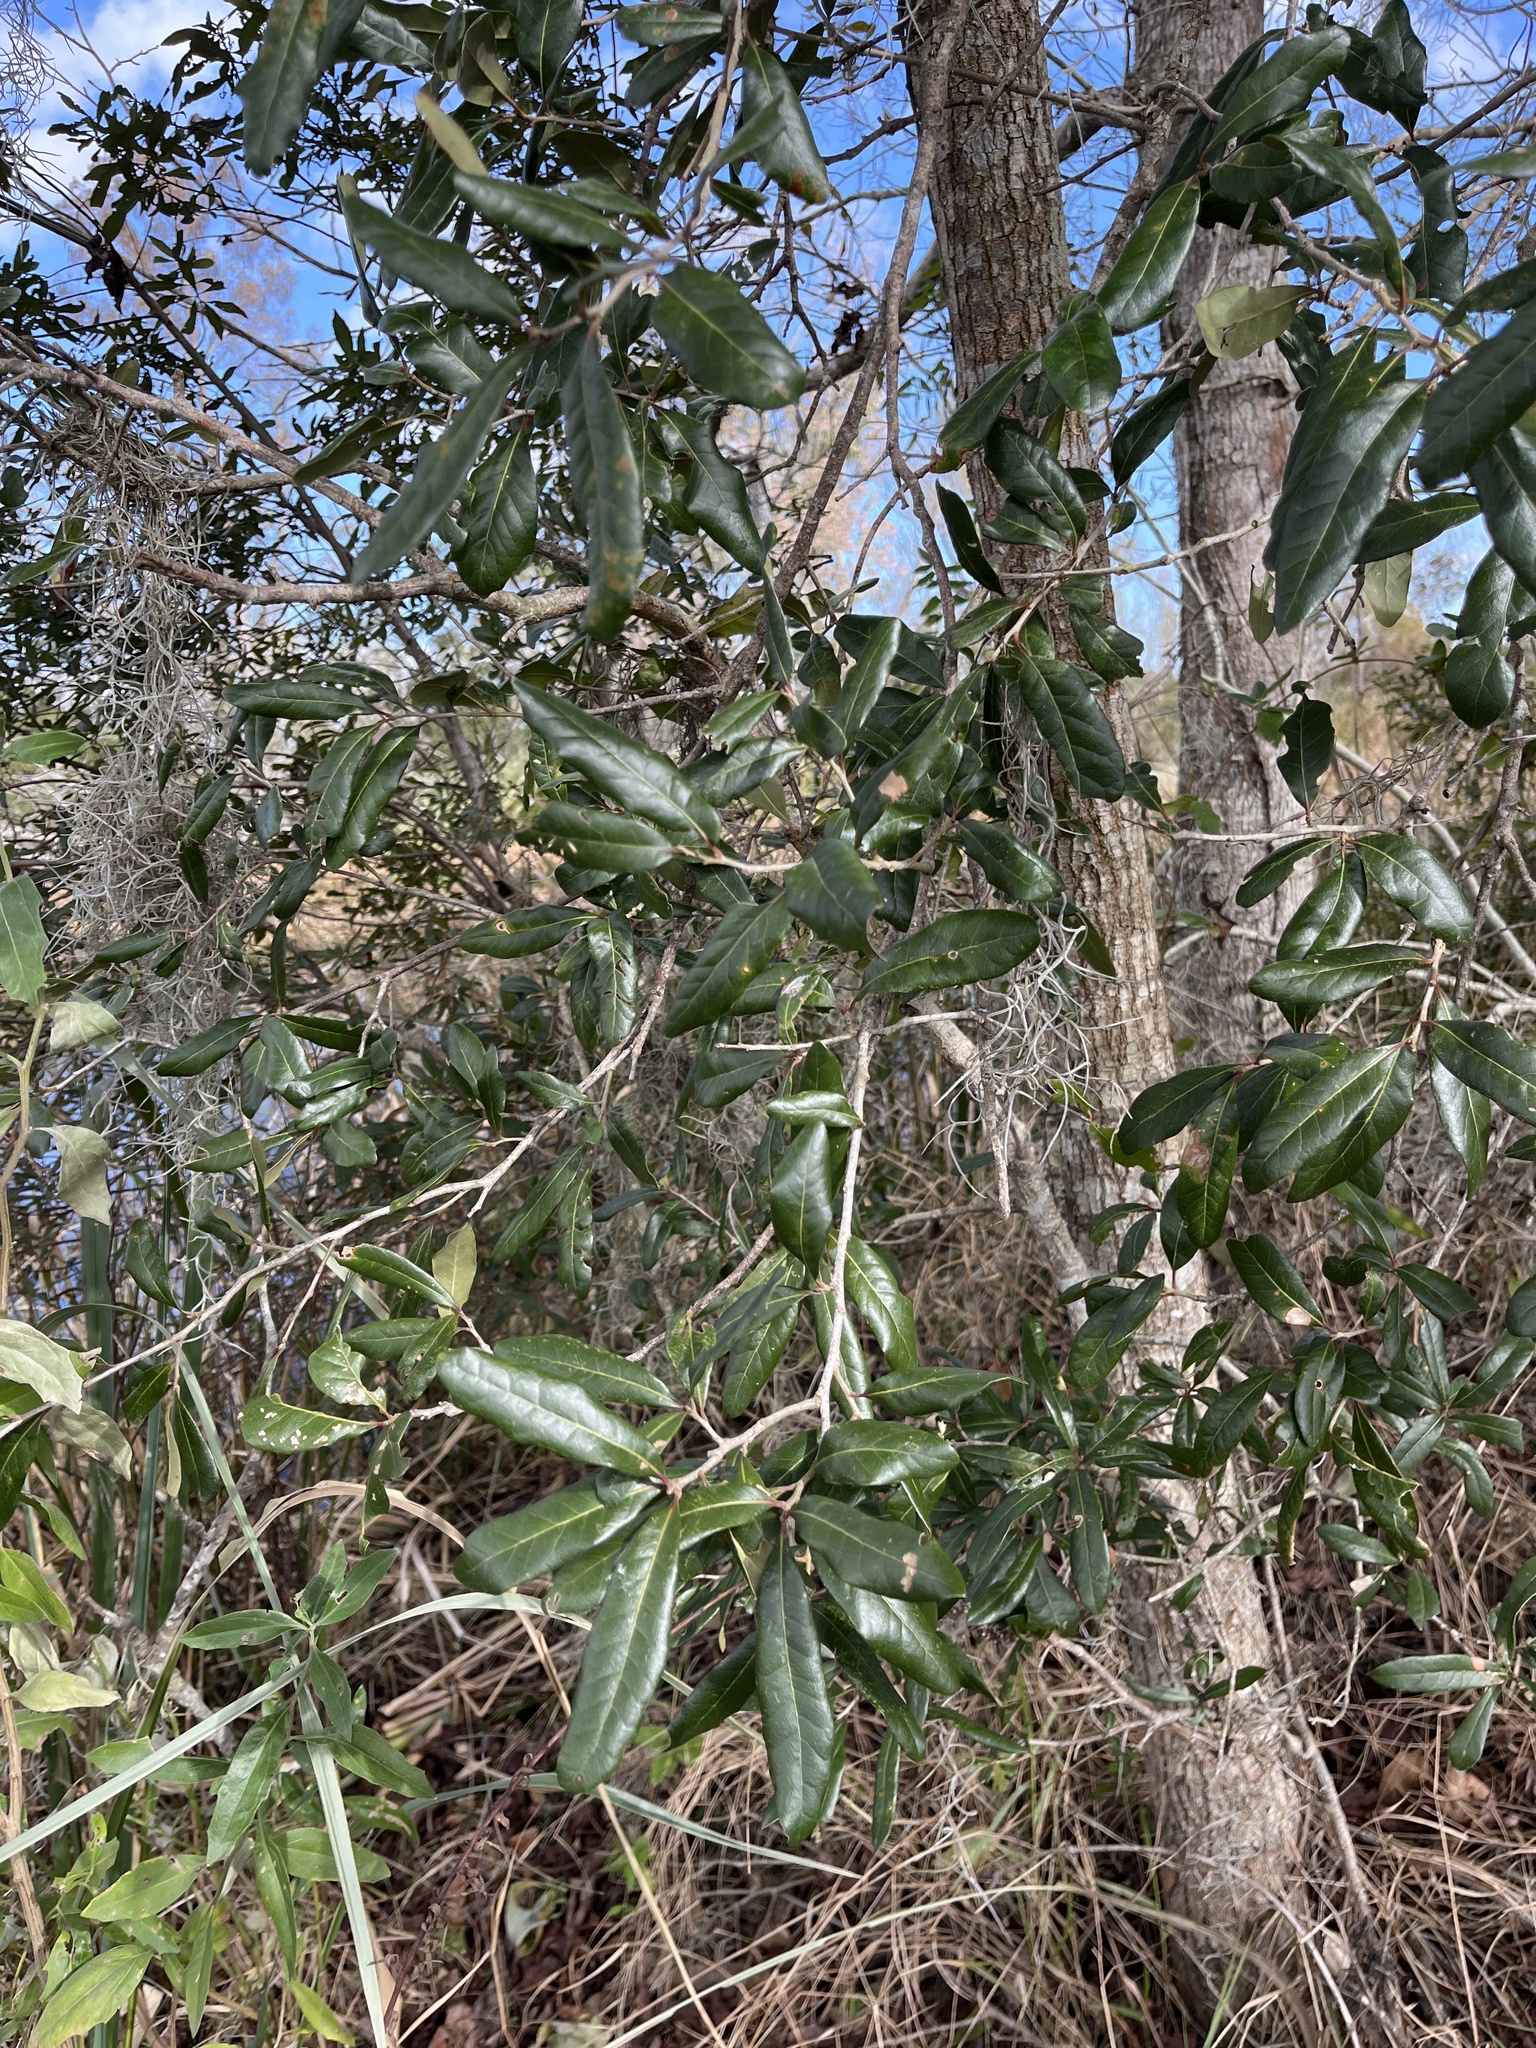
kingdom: Plantae
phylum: Tracheophyta
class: Magnoliopsida
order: Fagales
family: Fagaceae
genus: Quercus
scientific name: Quercus virginiana
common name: Southern live oak
